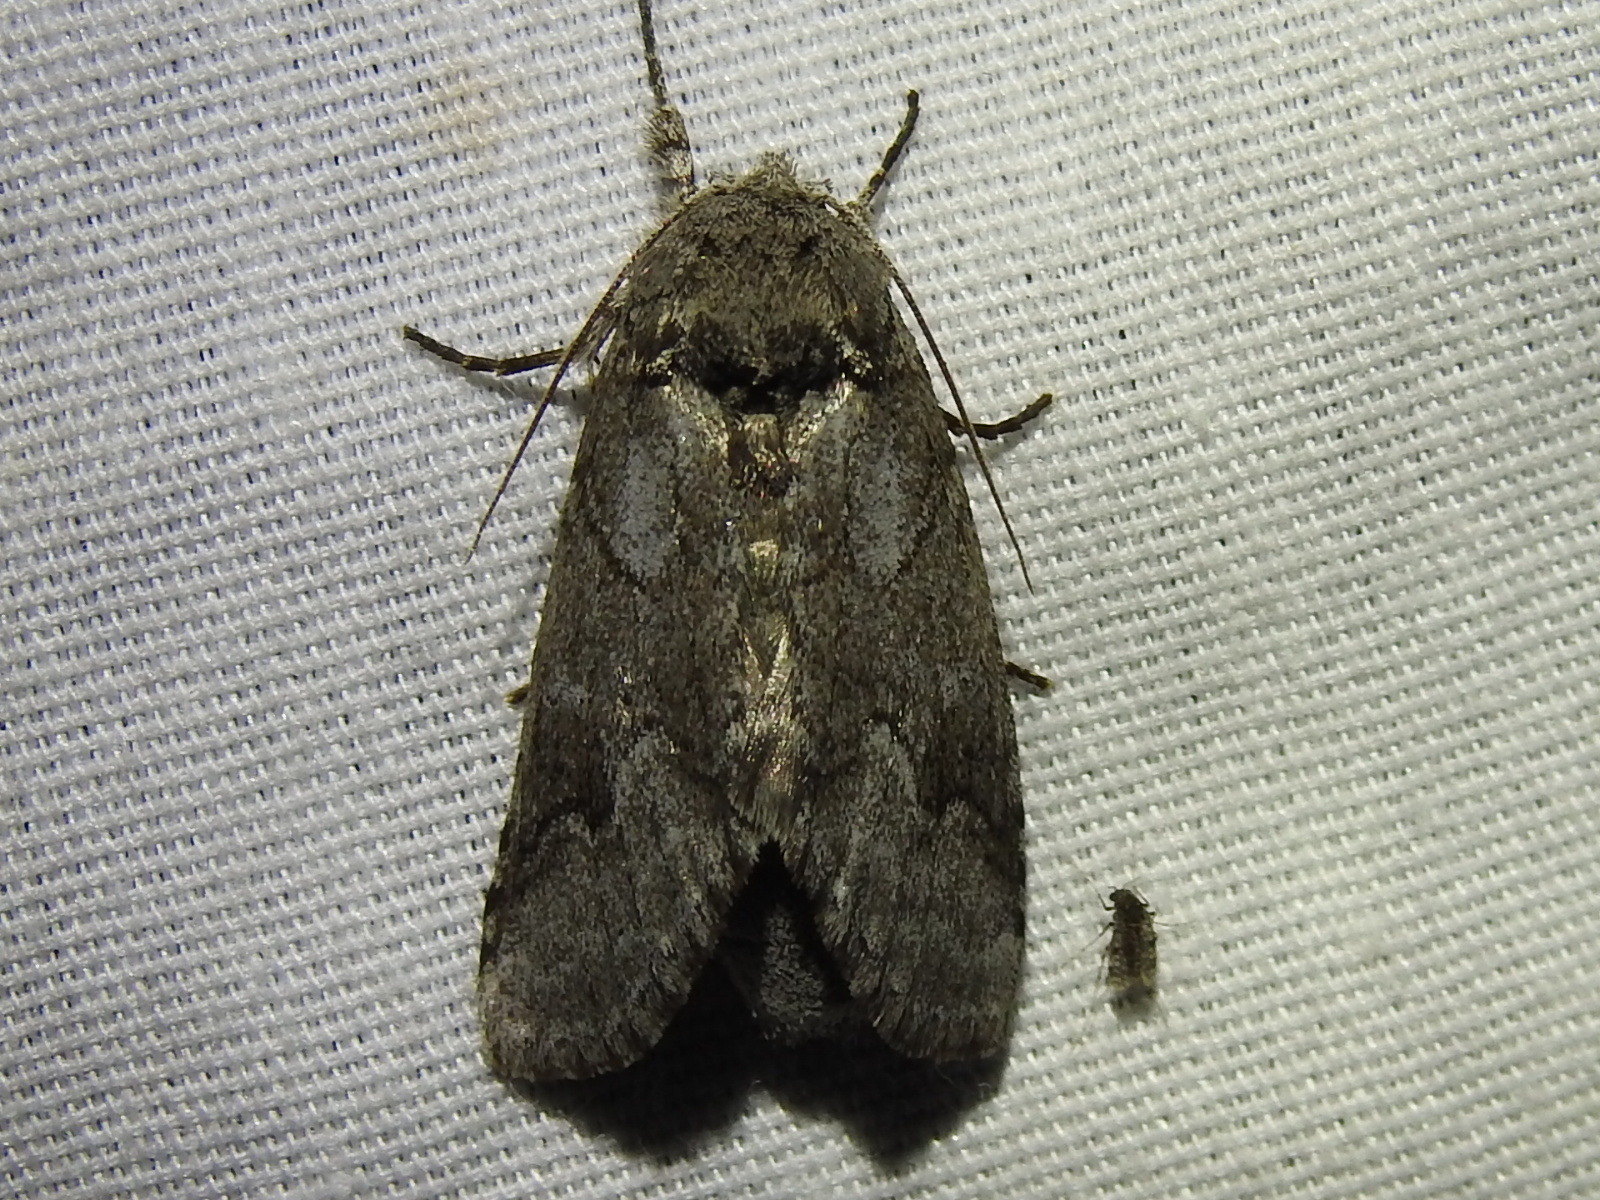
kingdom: Animalia
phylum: Arthropoda
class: Insecta
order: Lepidoptera
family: Notodontidae
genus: Lochmaeus
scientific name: Lochmaeus bilineata
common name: Double-lined prominent
